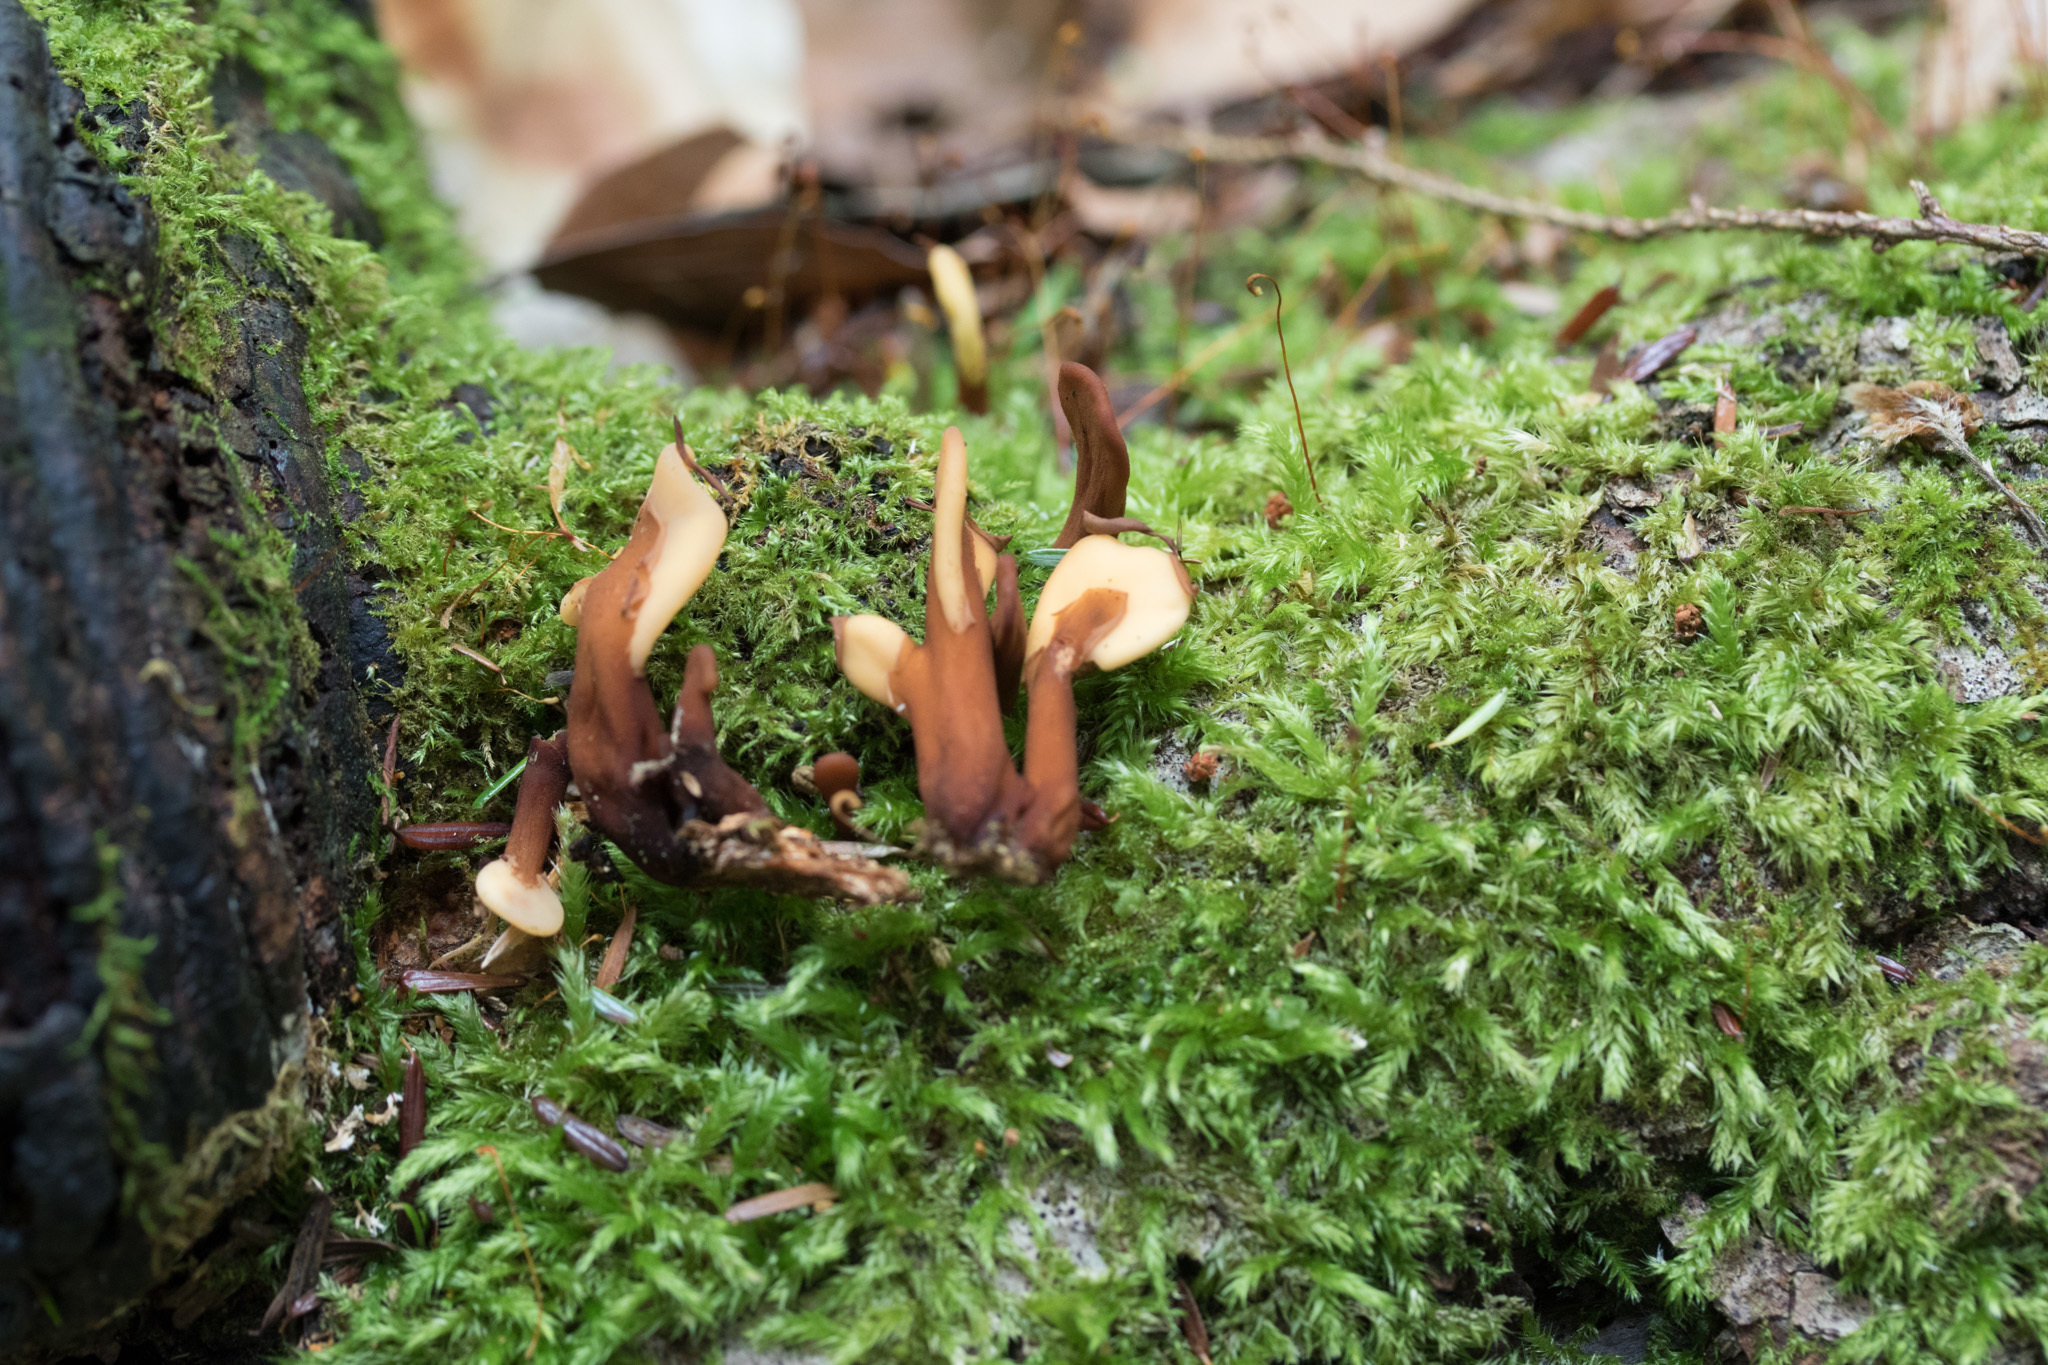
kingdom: Fungi
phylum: Ascomycota
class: Leotiomycetes
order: Rhytismatales
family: Cudoniaceae
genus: Spathulariopsis
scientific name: Spathulariopsis velutipes
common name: Velvet-foot fairy fan
